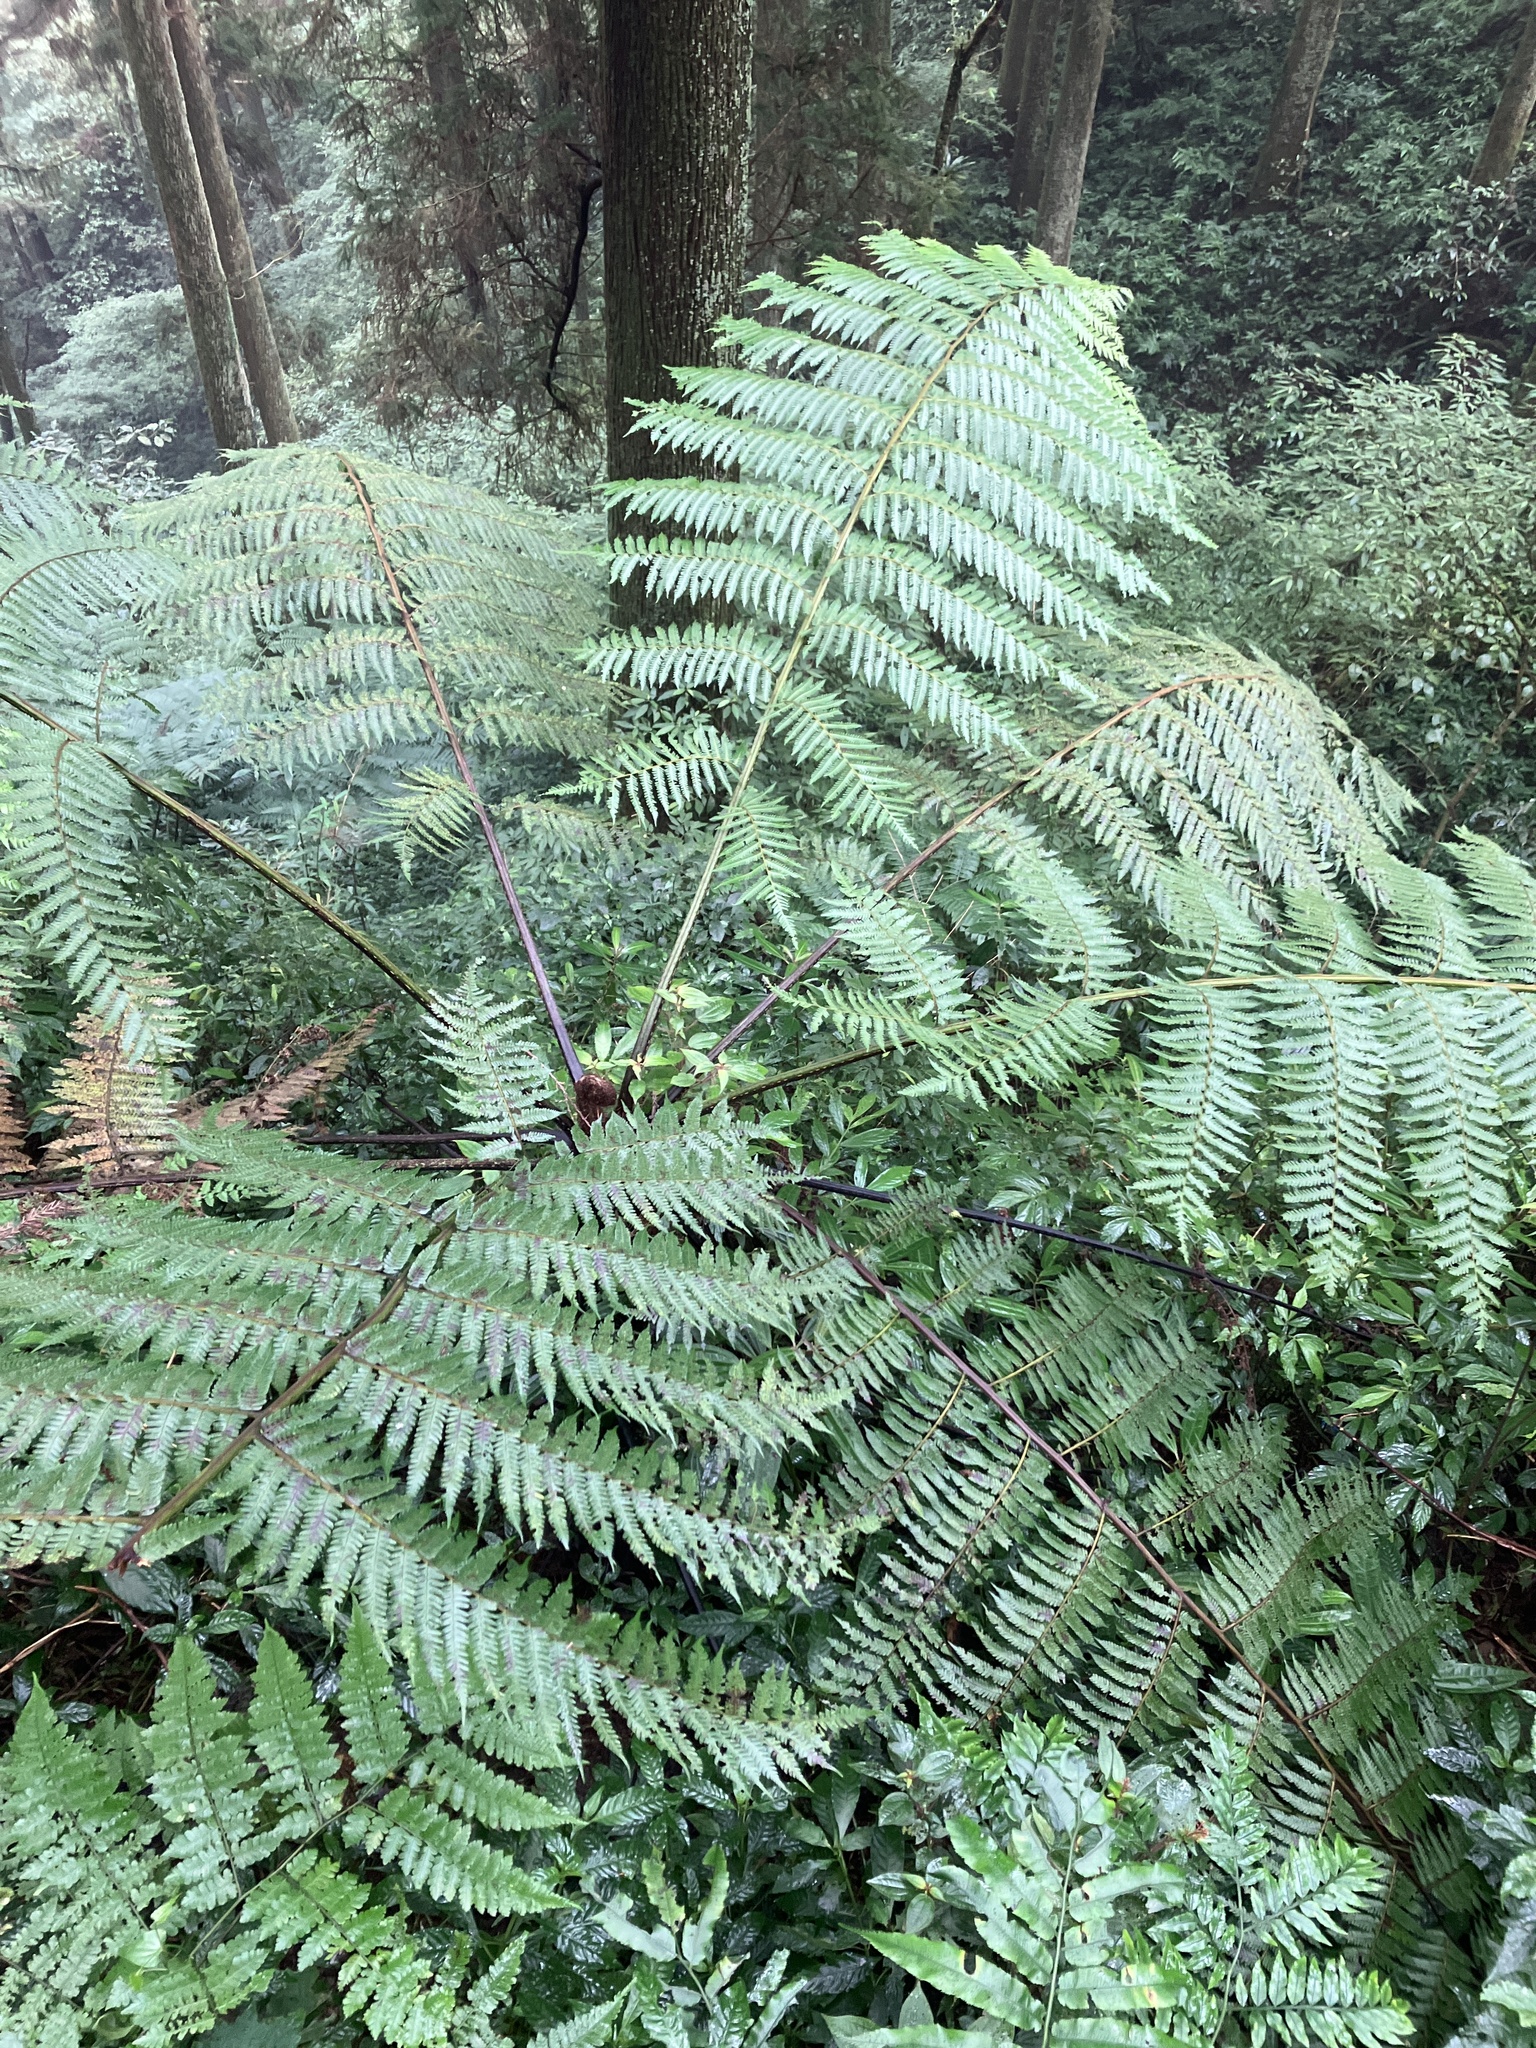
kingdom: Plantae
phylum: Tracheophyta
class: Polypodiopsida
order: Cyatheales
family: Cyatheaceae
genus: Alsophila
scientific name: Alsophila spinulosa
